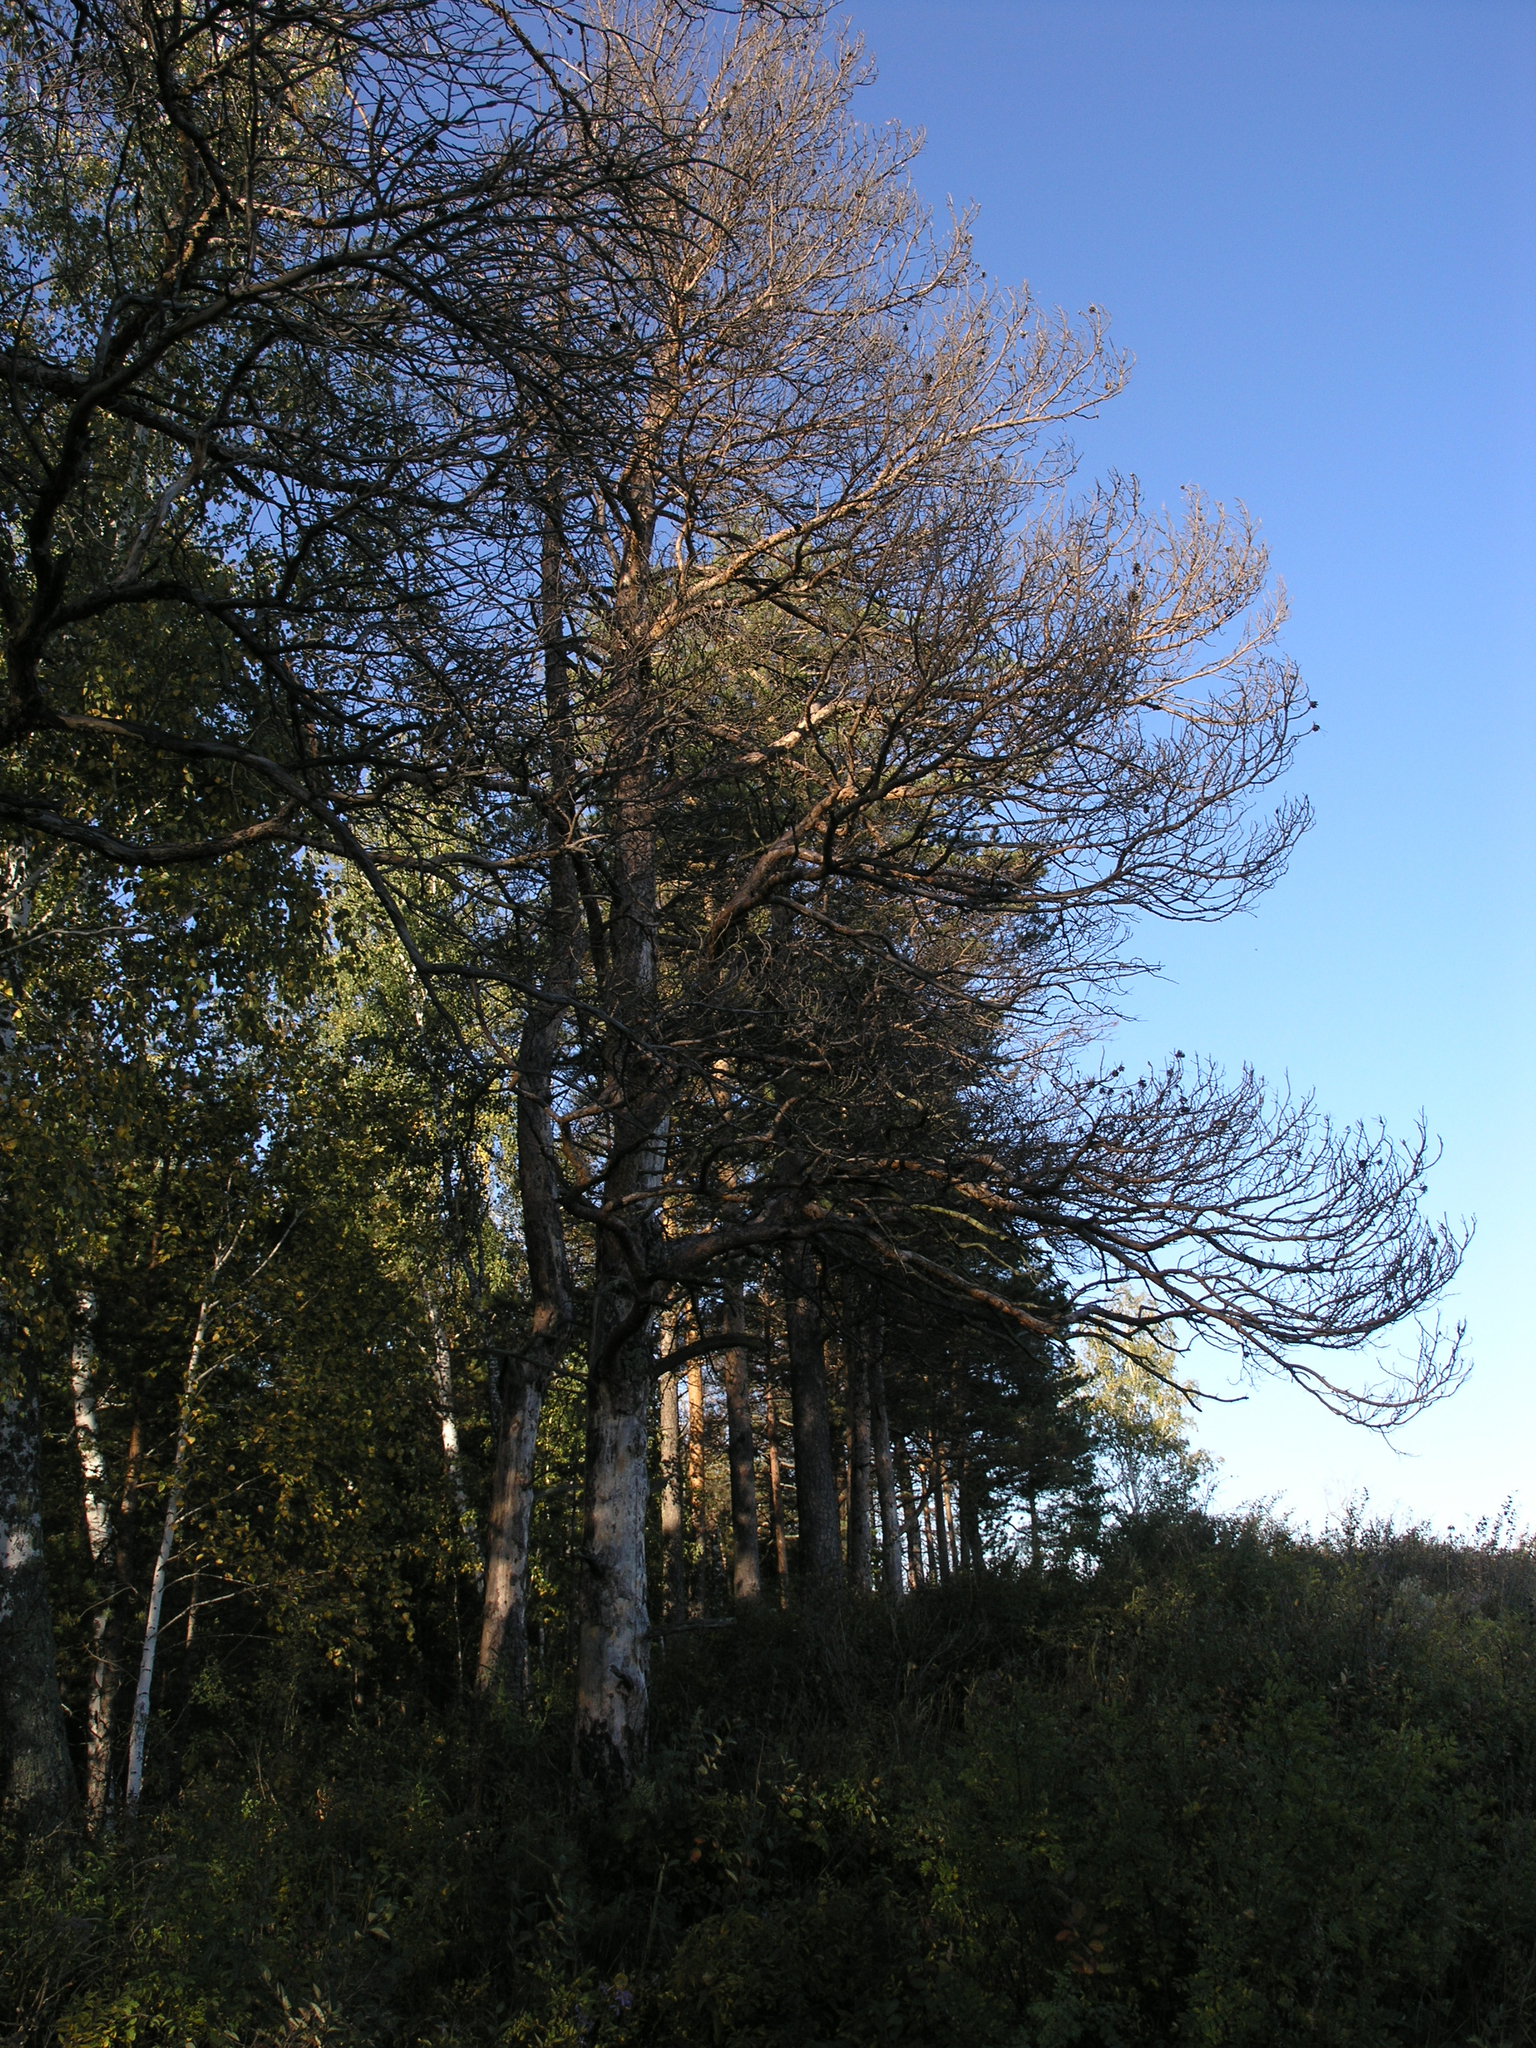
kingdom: Plantae
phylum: Tracheophyta
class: Pinopsida
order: Pinales
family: Pinaceae
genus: Pinus
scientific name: Pinus sylvestris
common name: Scots pine
